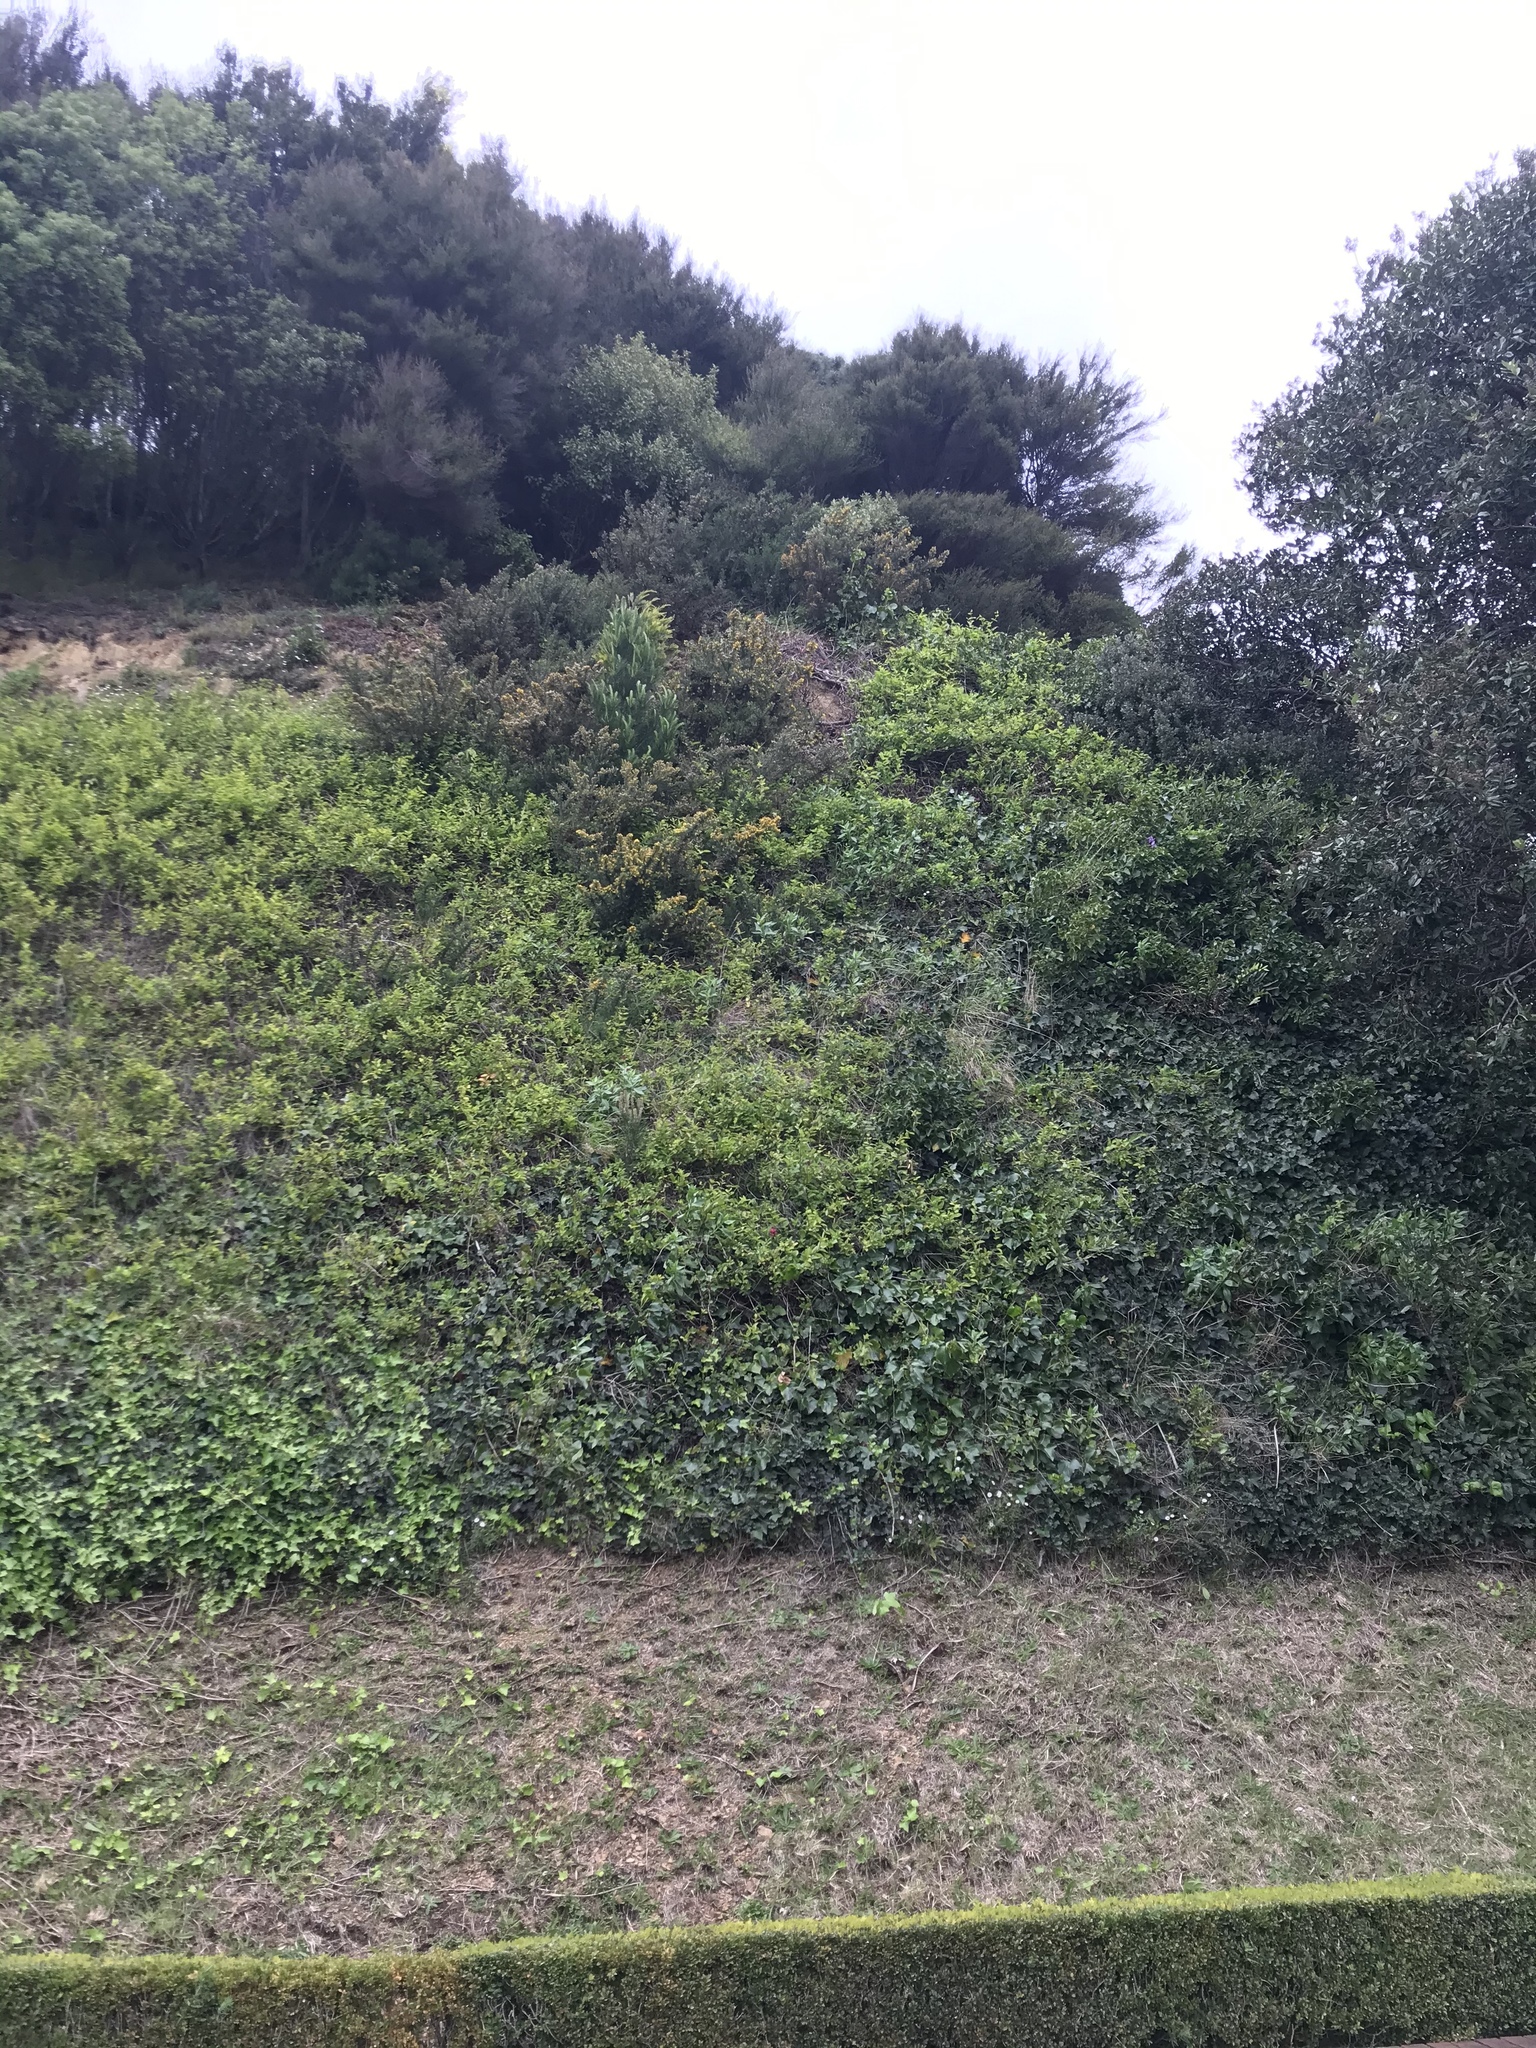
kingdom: Plantae
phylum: Tracheophyta
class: Magnoliopsida
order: Dipsacales
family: Caprifoliaceae
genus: Lonicera
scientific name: Lonicera japonica
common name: Japanese honeysuckle
